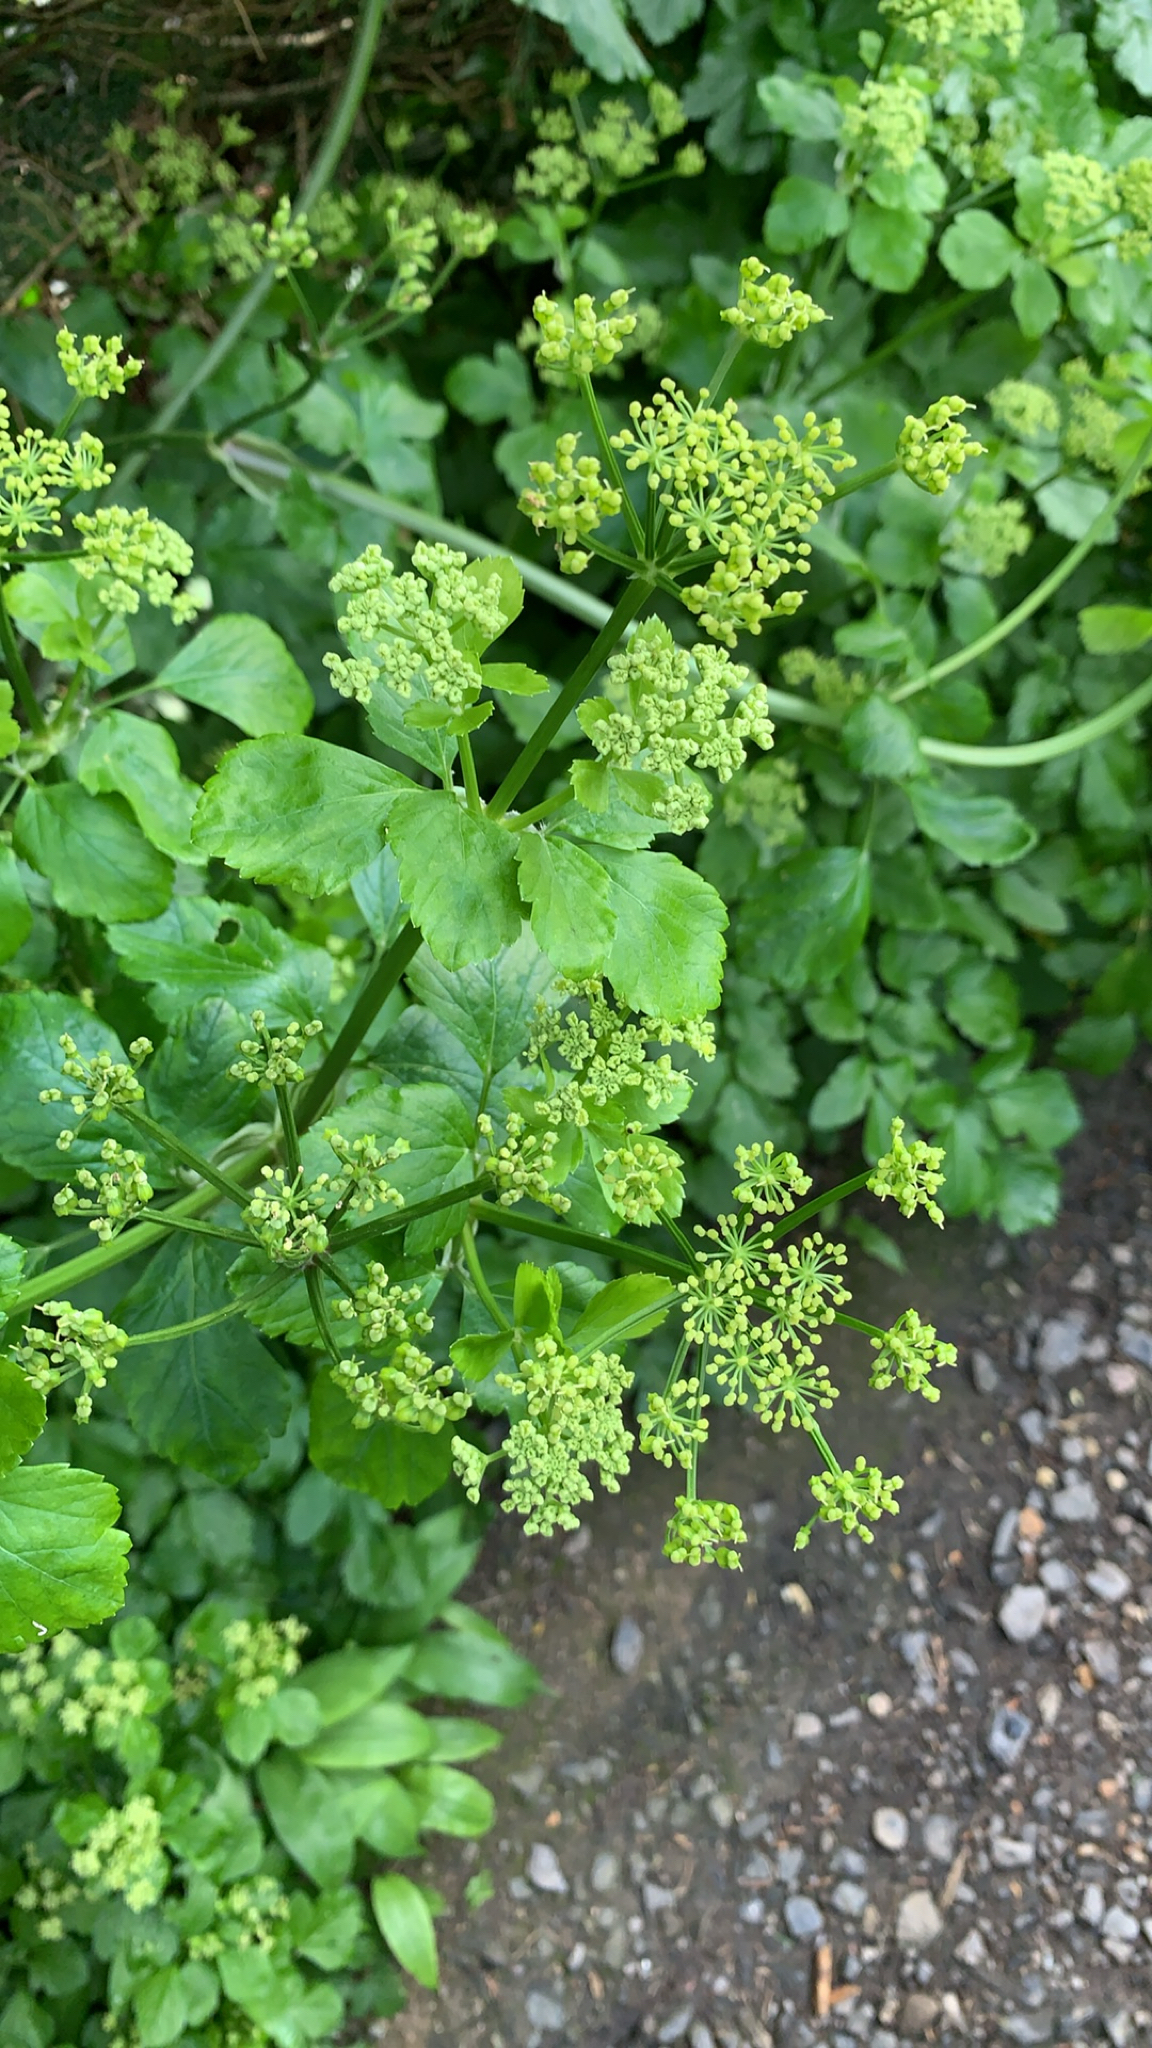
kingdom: Plantae
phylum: Tracheophyta
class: Magnoliopsida
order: Apiales
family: Apiaceae
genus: Smyrnium
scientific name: Smyrnium olusatrum
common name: Alexanders
